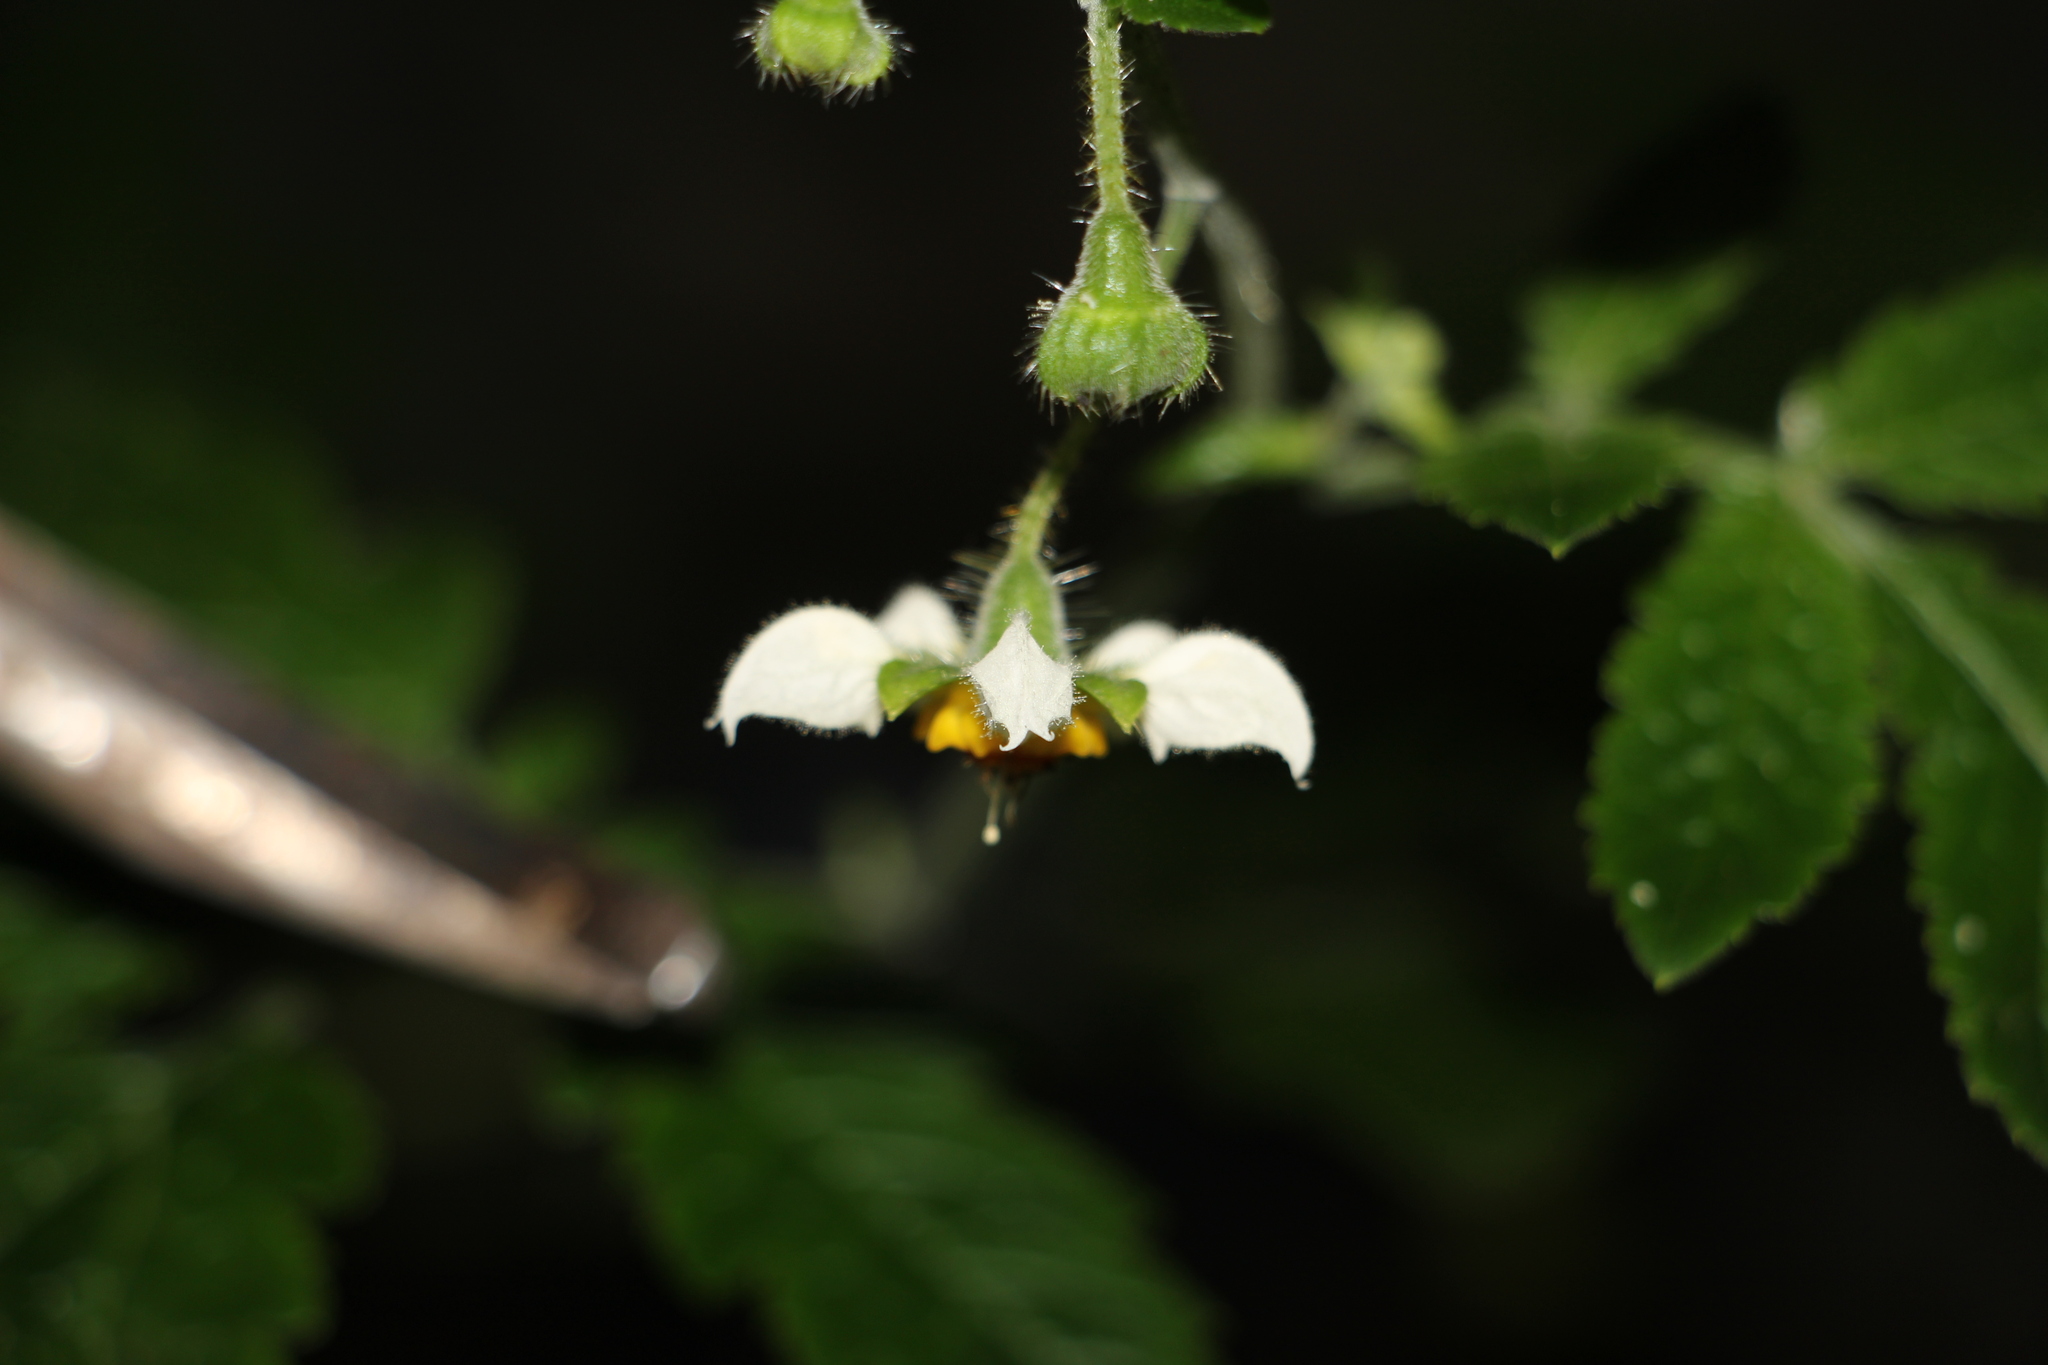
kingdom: Plantae
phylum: Tracheophyta
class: Magnoliopsida
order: Cornales
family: Loasaceae
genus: Nasa
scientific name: Nasa triphylla
